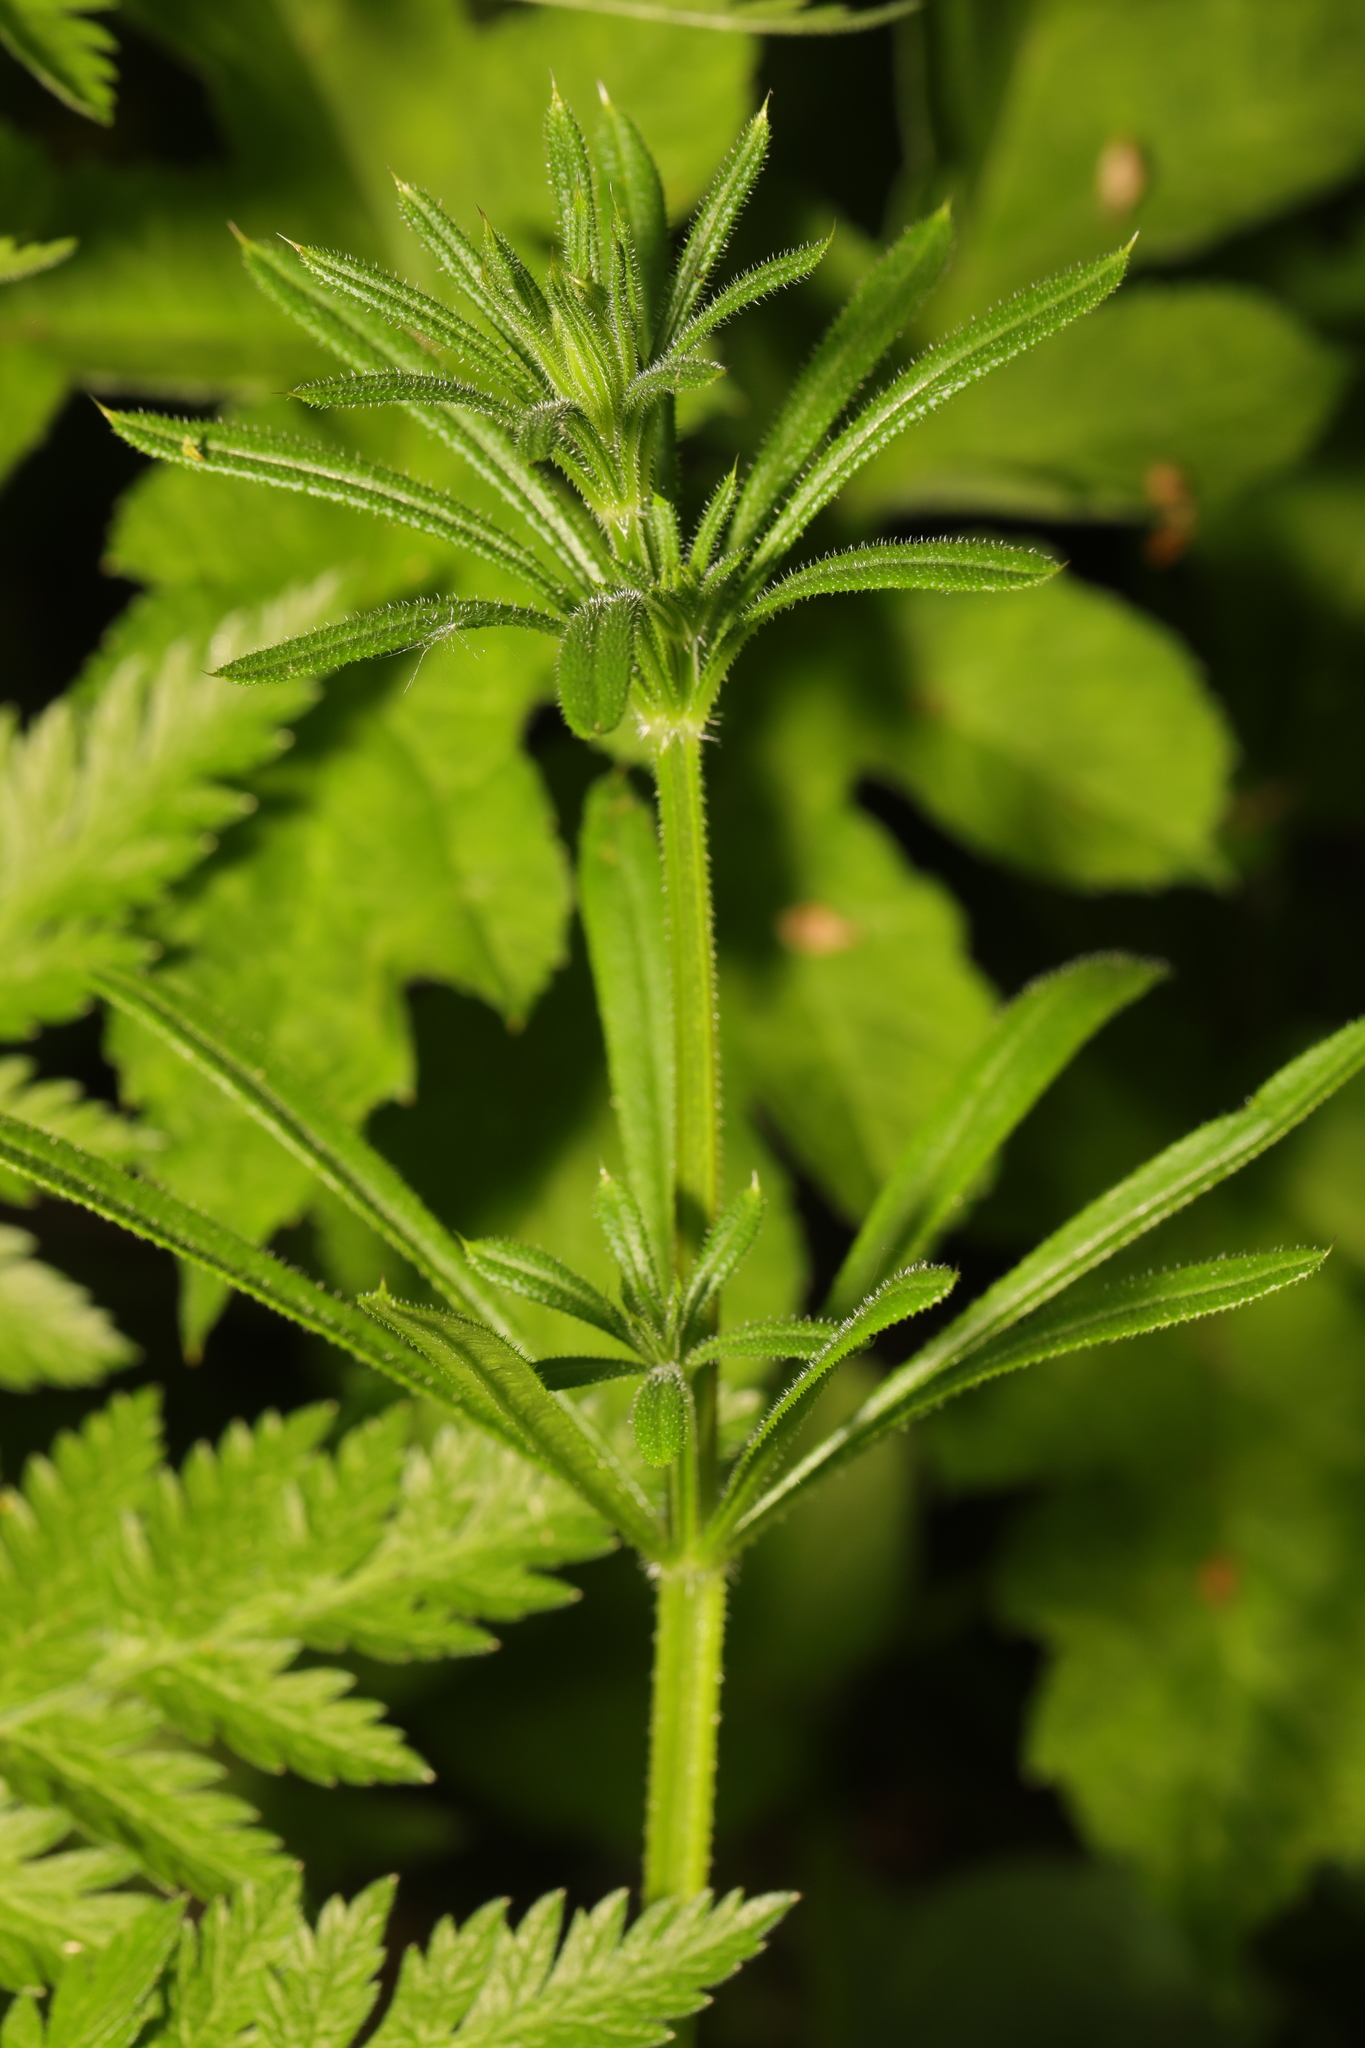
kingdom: Plantae
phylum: Tracheophyta
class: Magnoliopsida
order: Gentianales
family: Rubiaceae
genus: Galium
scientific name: Galium aparine
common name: Cleavers
